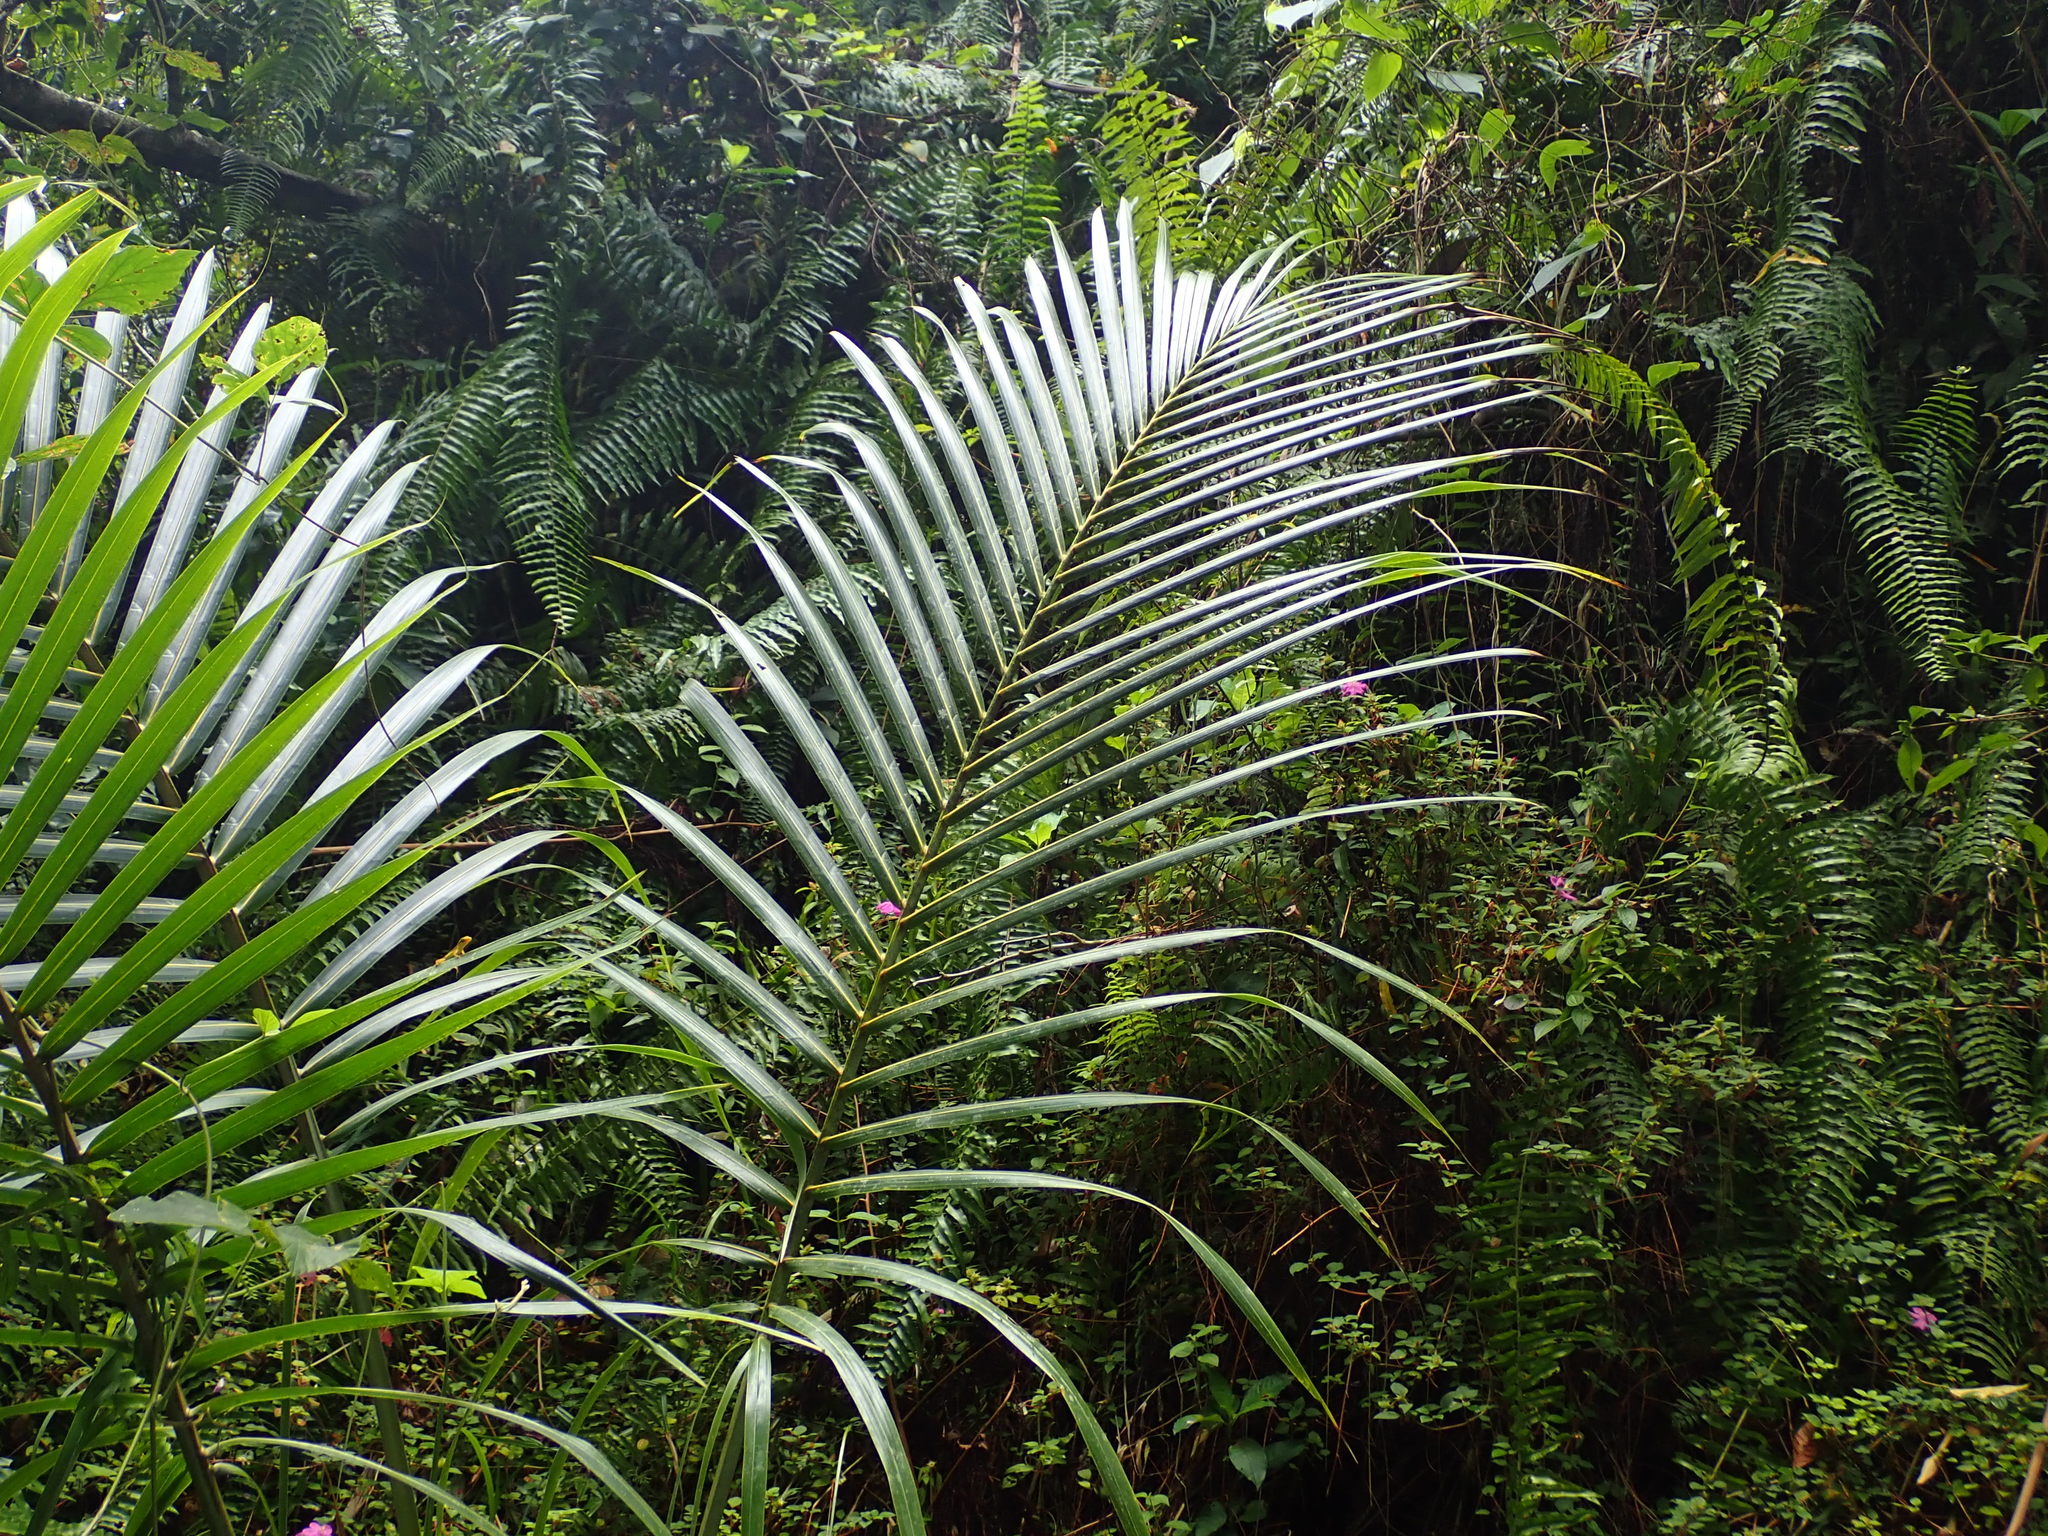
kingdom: Plantae
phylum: Tracheophyta
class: Liliopsida
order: Arecales
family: Arecaceae
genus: Prestoea
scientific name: Prestoea acuminata
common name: Sierran palm
